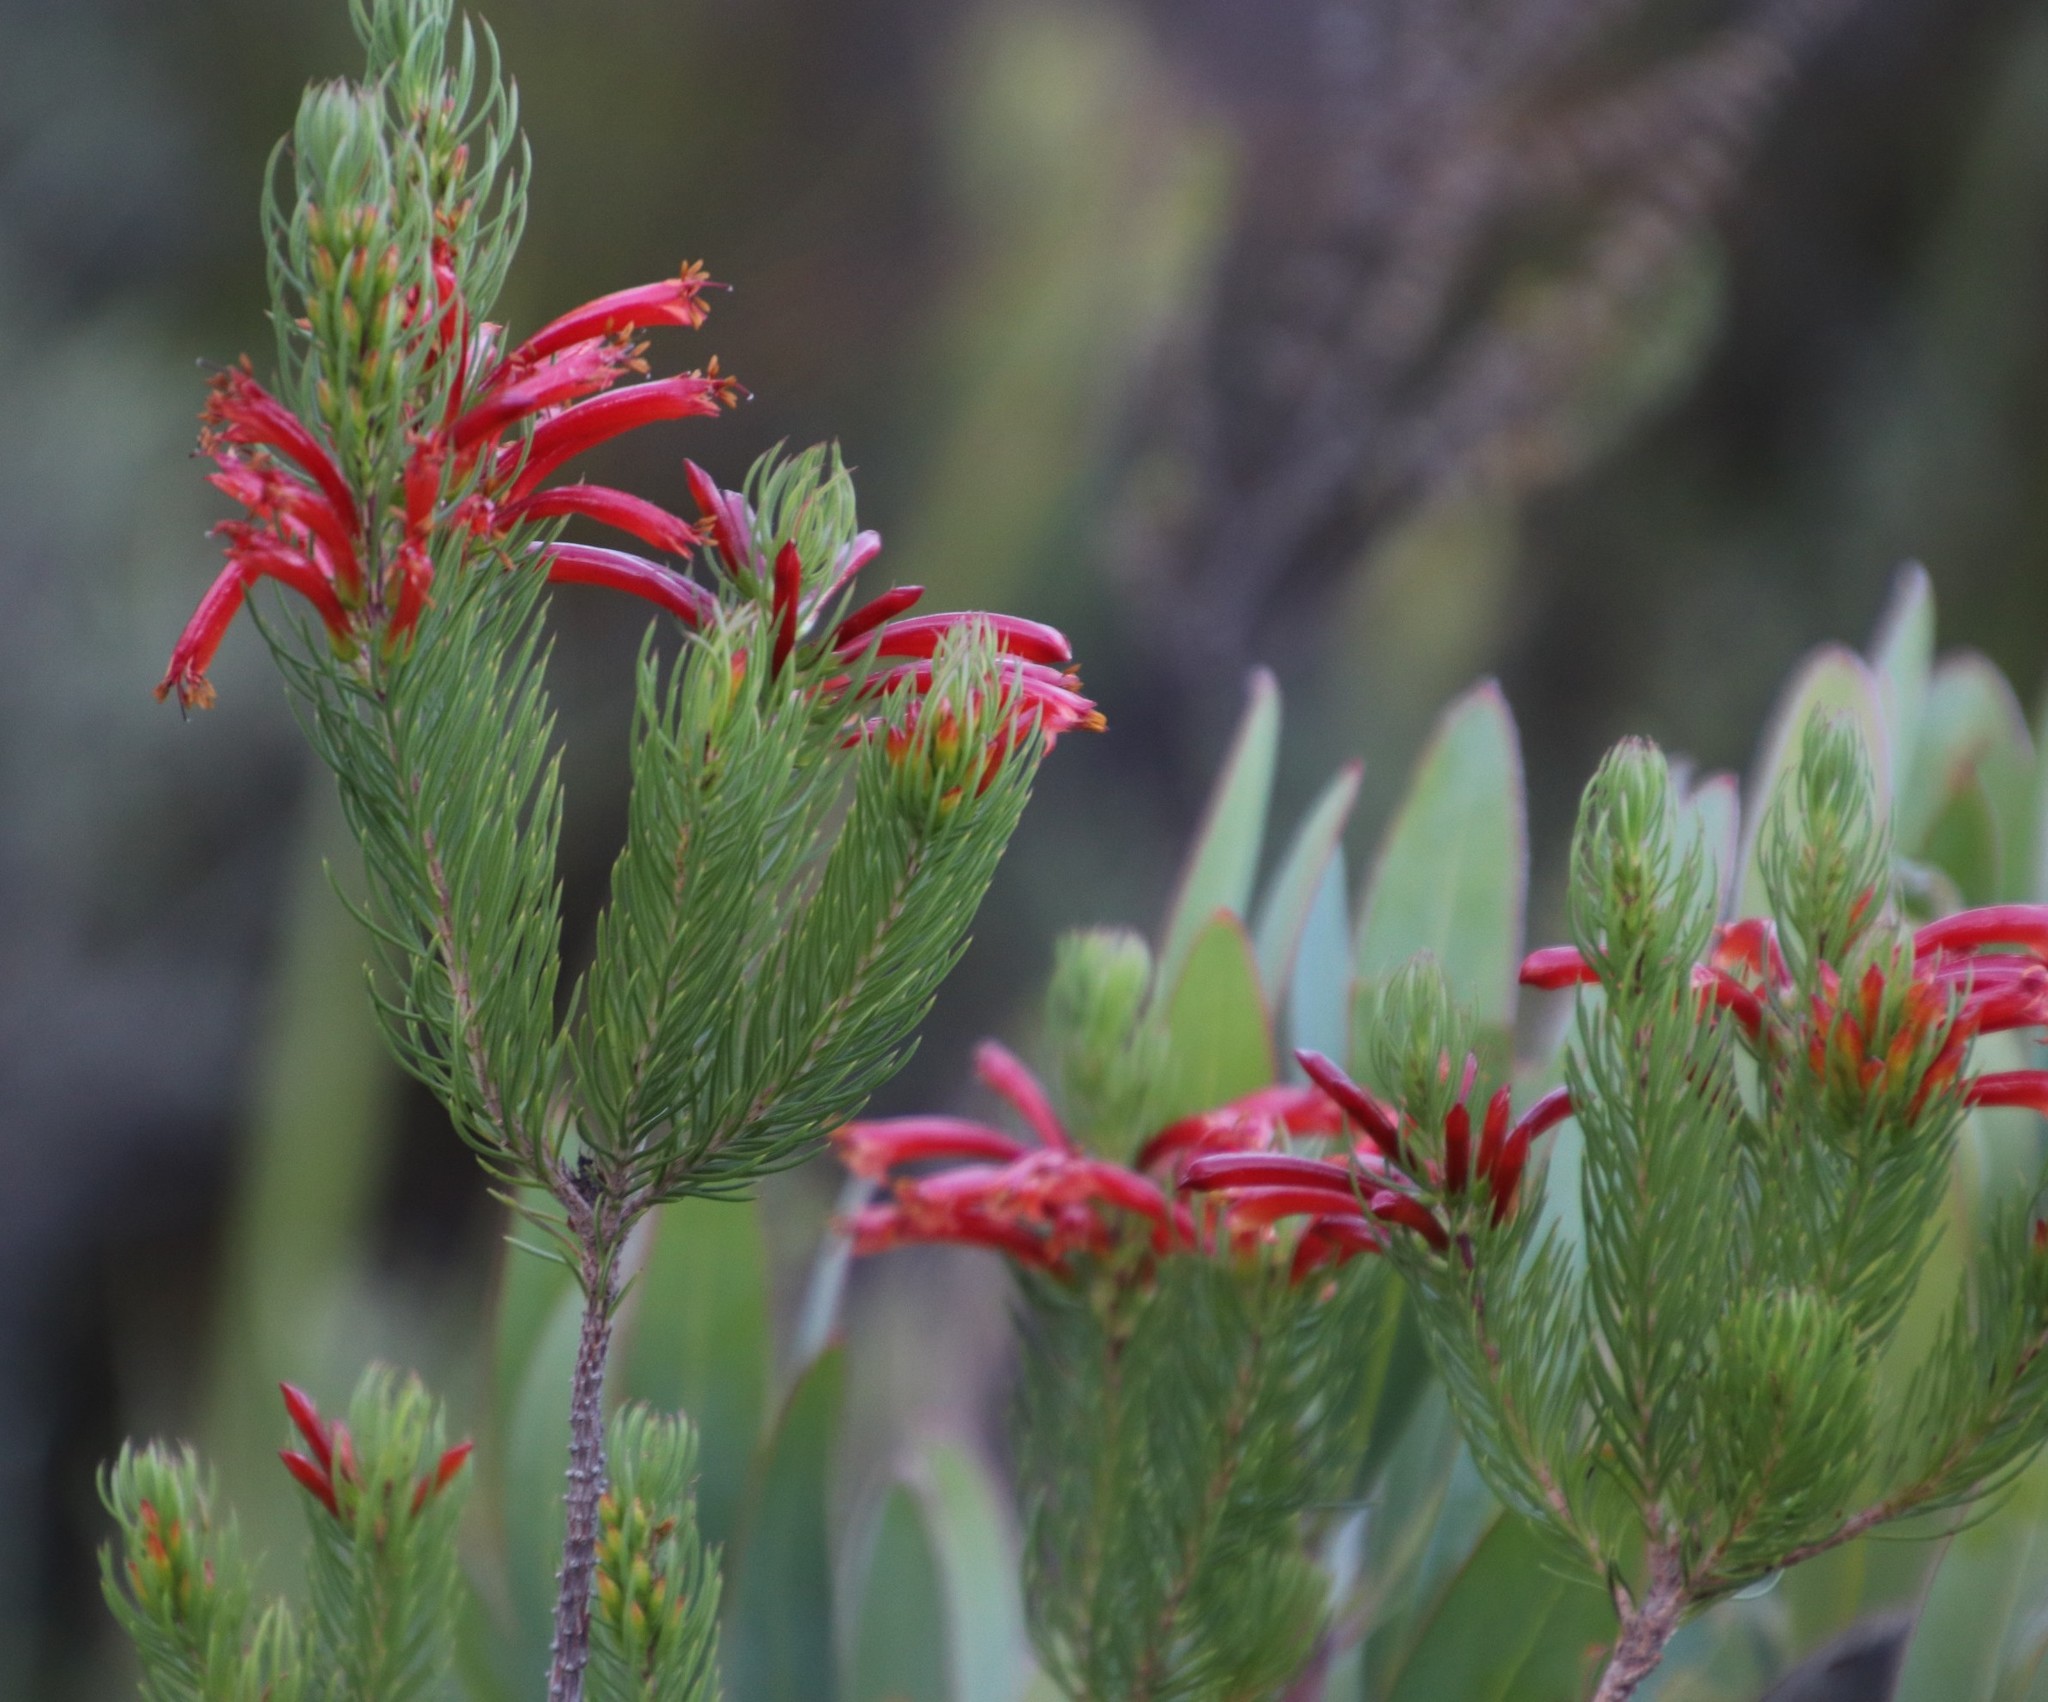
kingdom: Plantae
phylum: Tracheophyta
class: Magnoliopsida
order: Ericales
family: Ericaceae
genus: Erica
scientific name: Erica grandiflora
